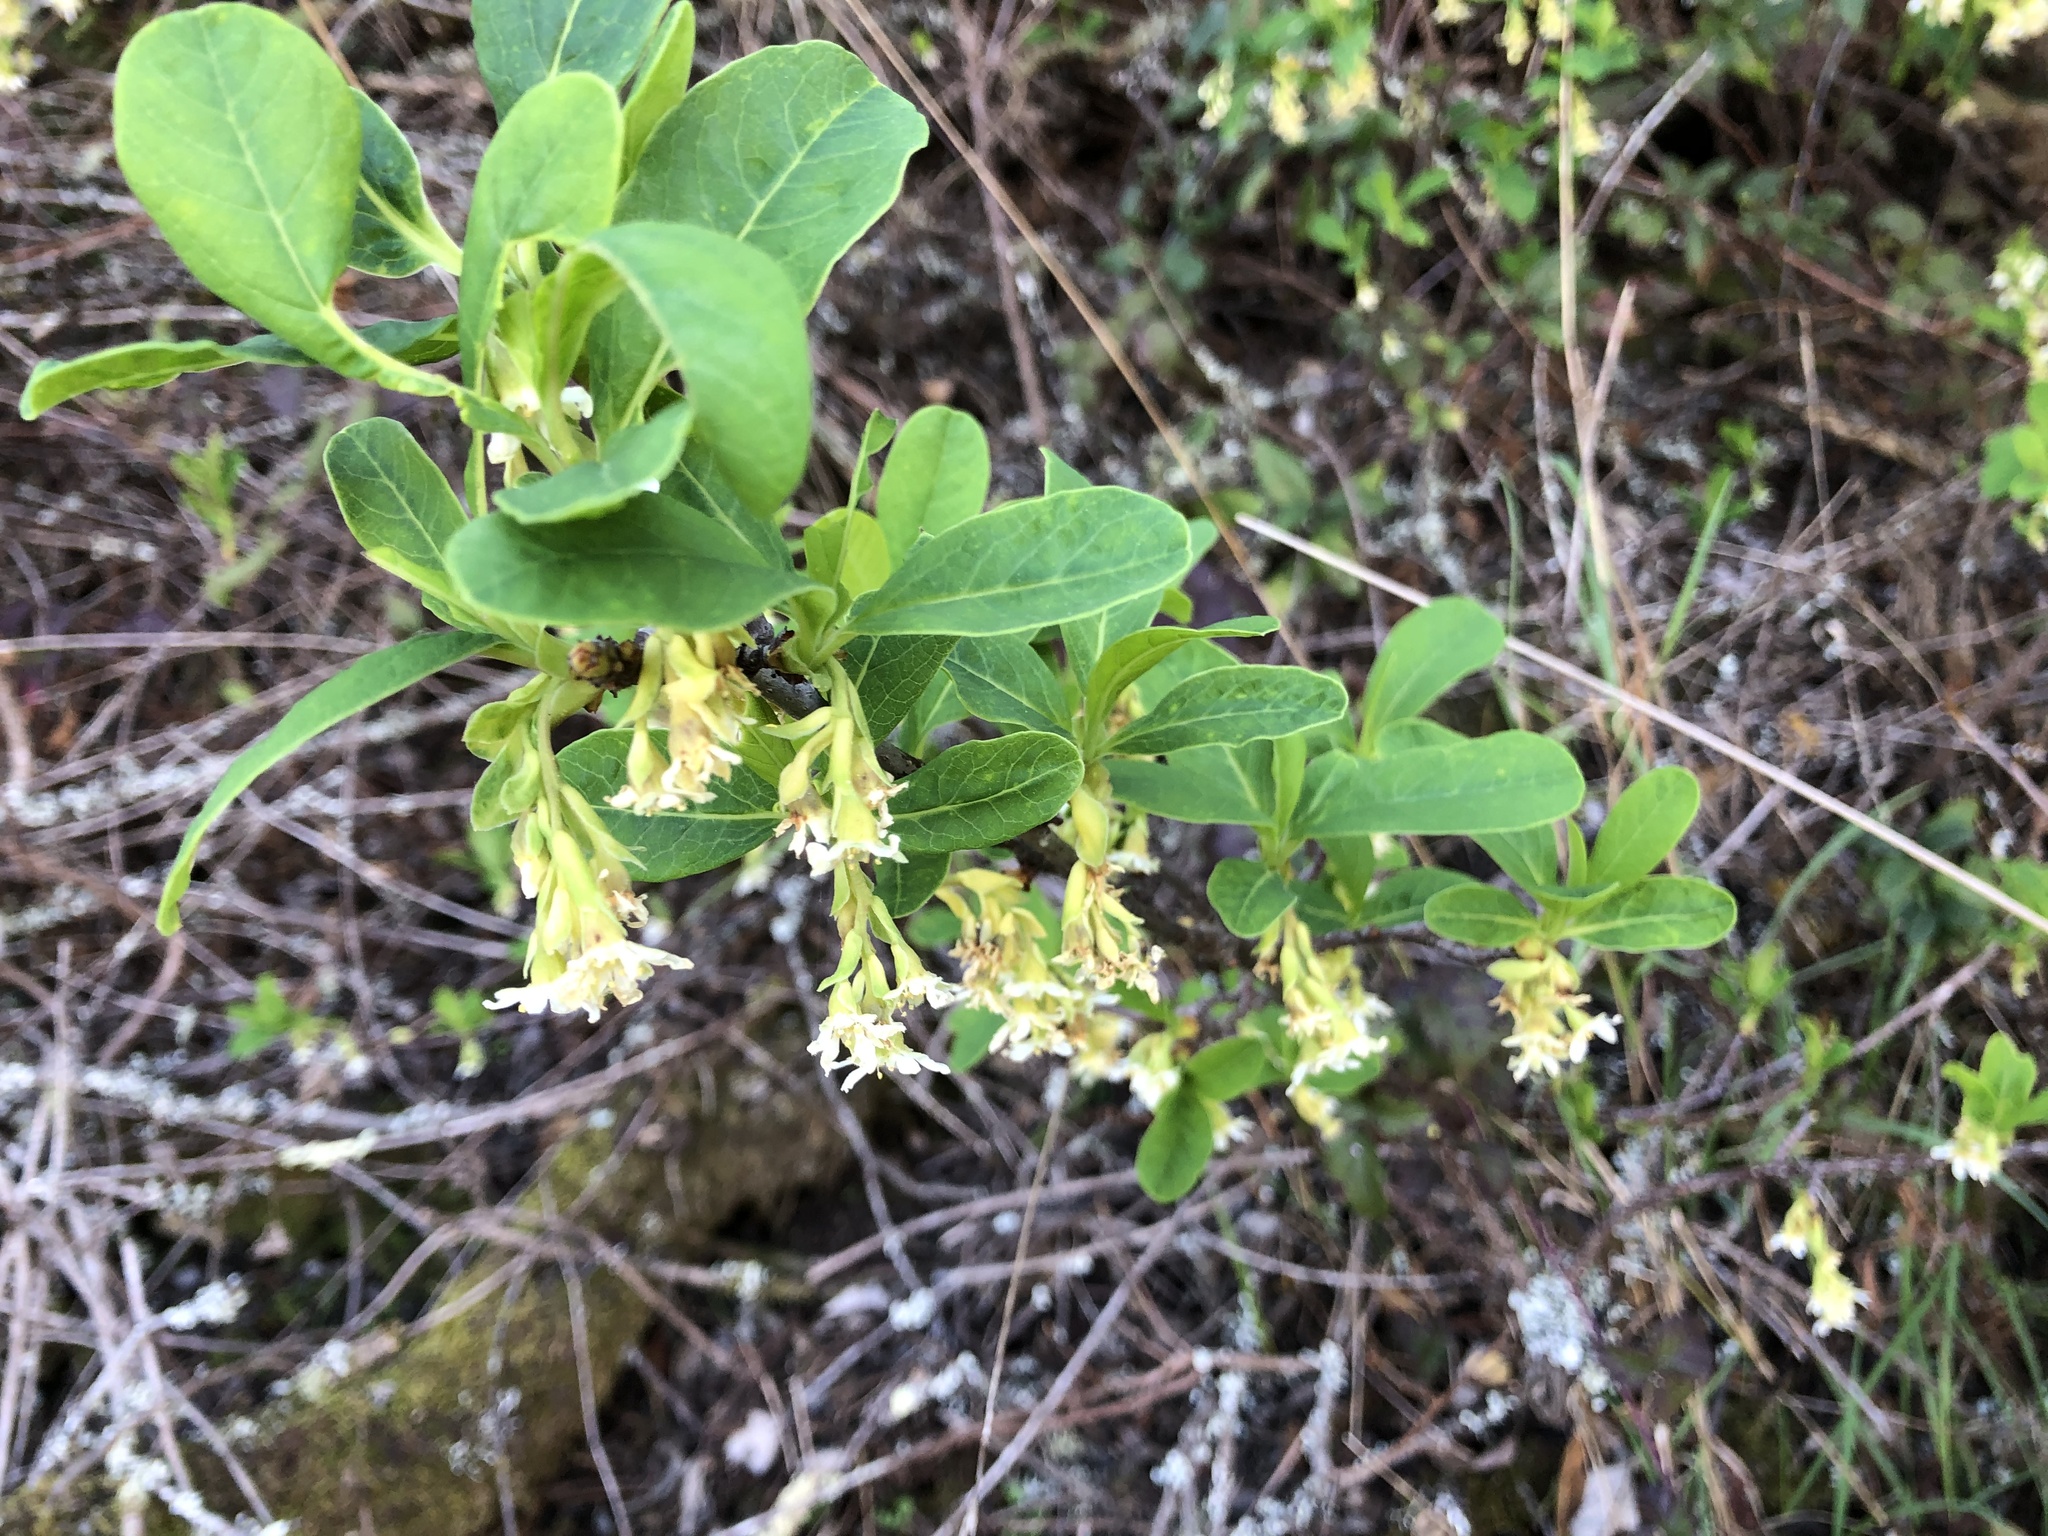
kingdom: Plantae
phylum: Tracheophyta
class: Magnoliopsida
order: Rosales
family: Rosaceae
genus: Oemleria
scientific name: Oemleria cerasiformis
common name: Osoberry
